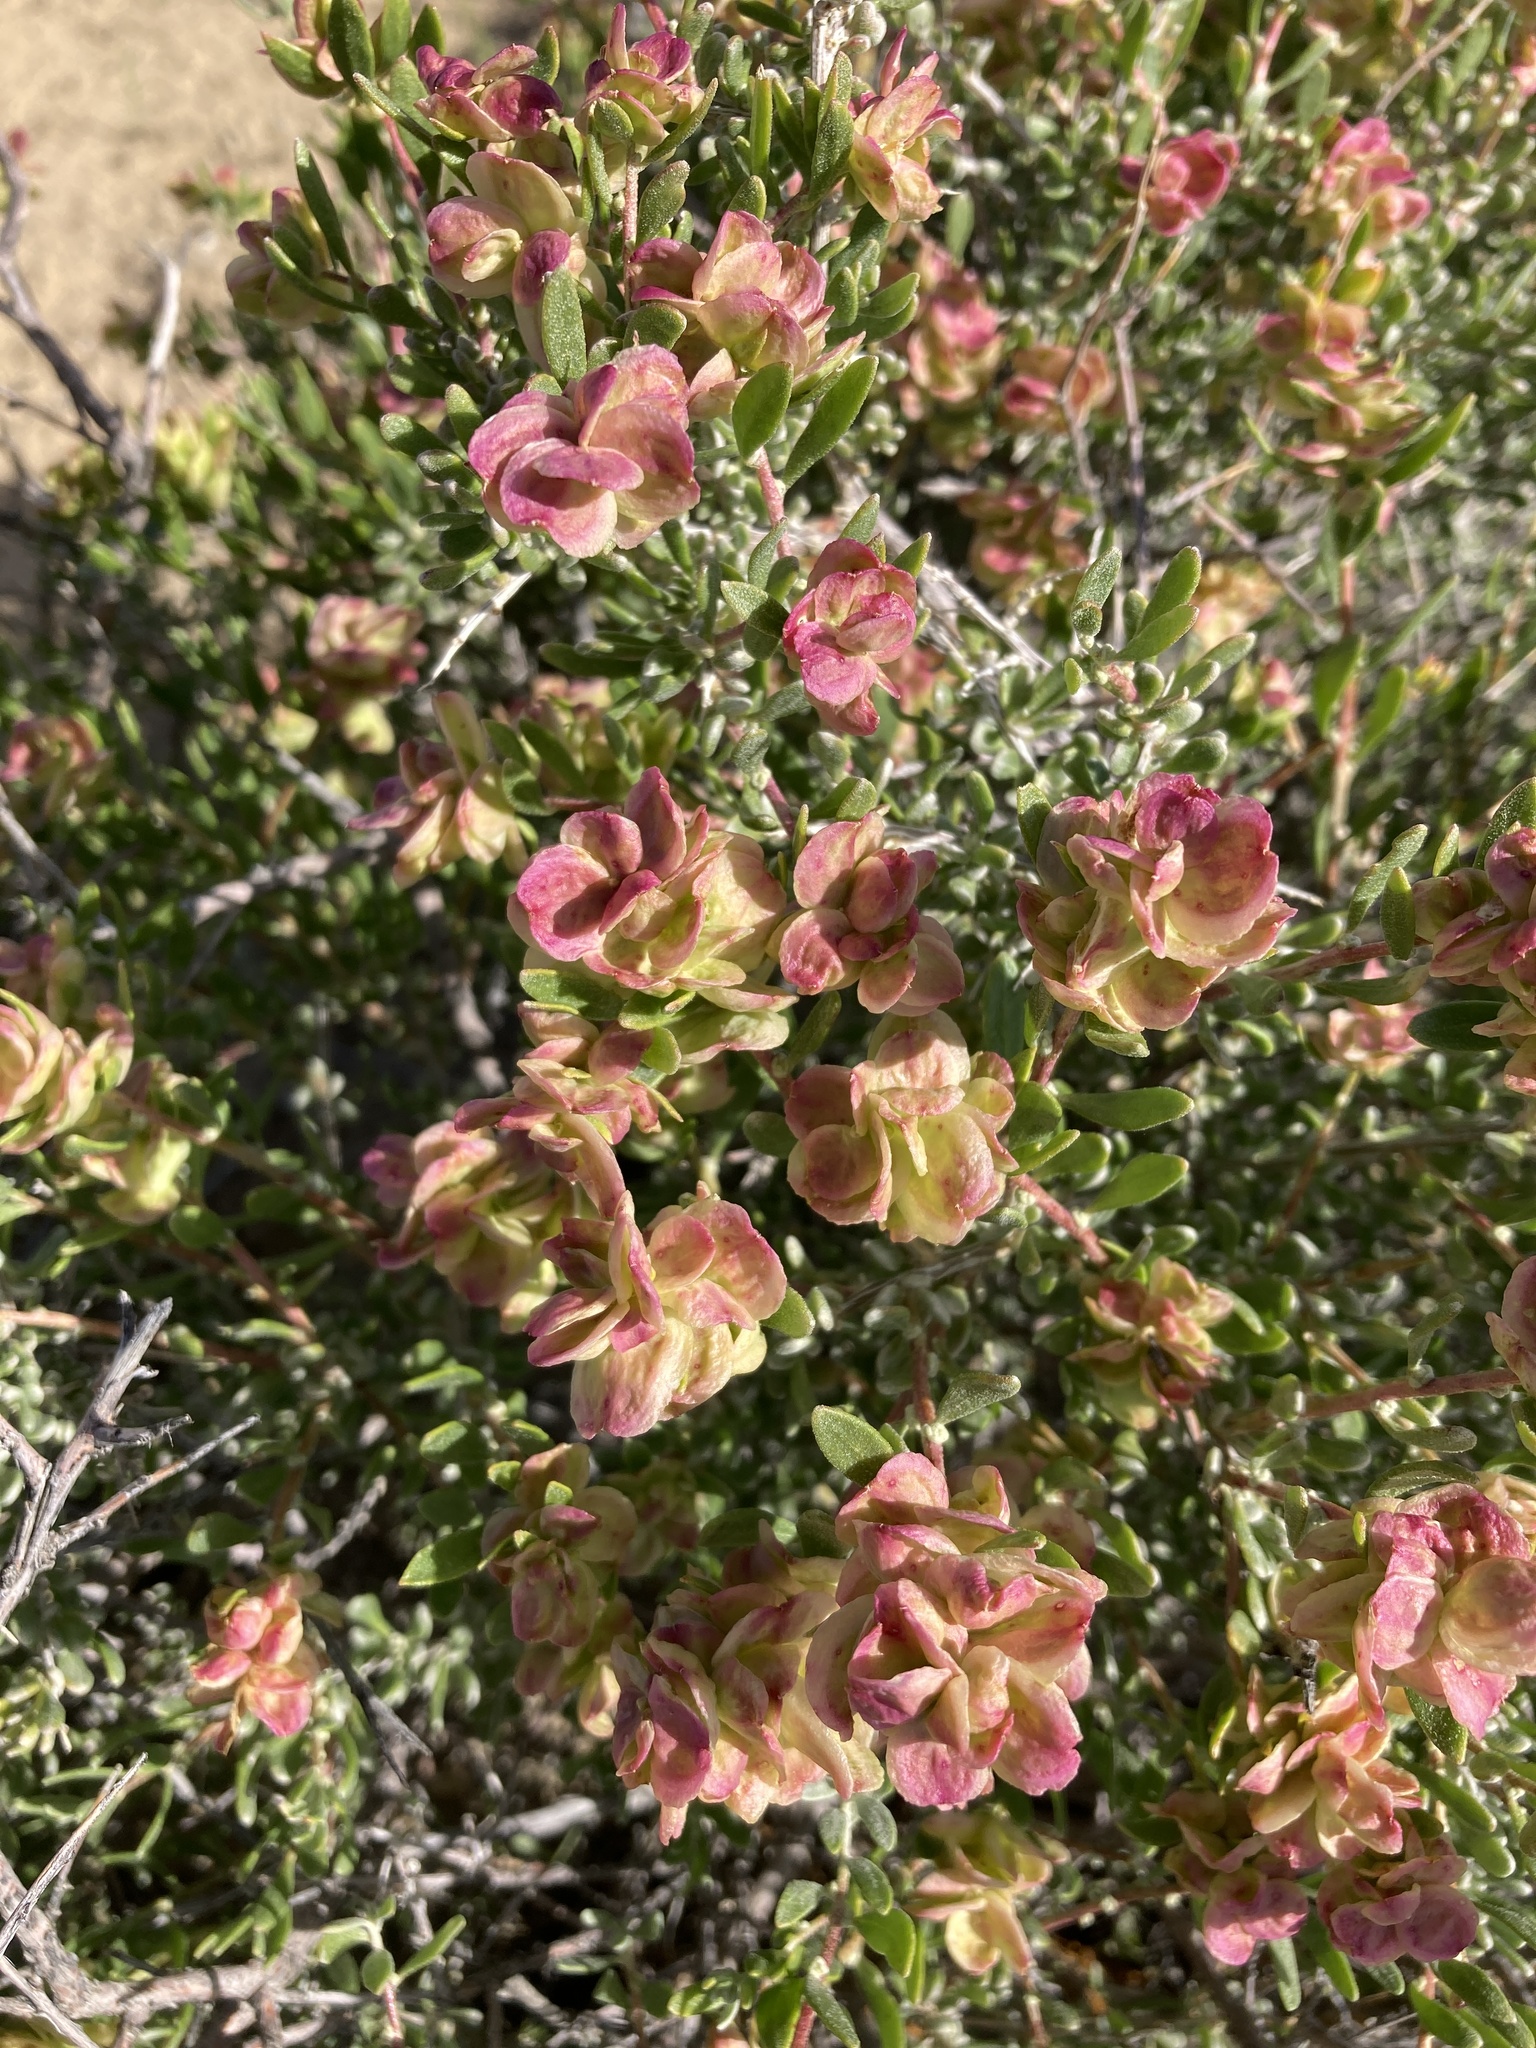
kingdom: Plantae
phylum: Tracheophyta
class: Magnoliopsida
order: Caryophyllales
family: Amaranthaceae
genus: Grayia
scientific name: Grayia spinosa
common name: Spiny hopsage
